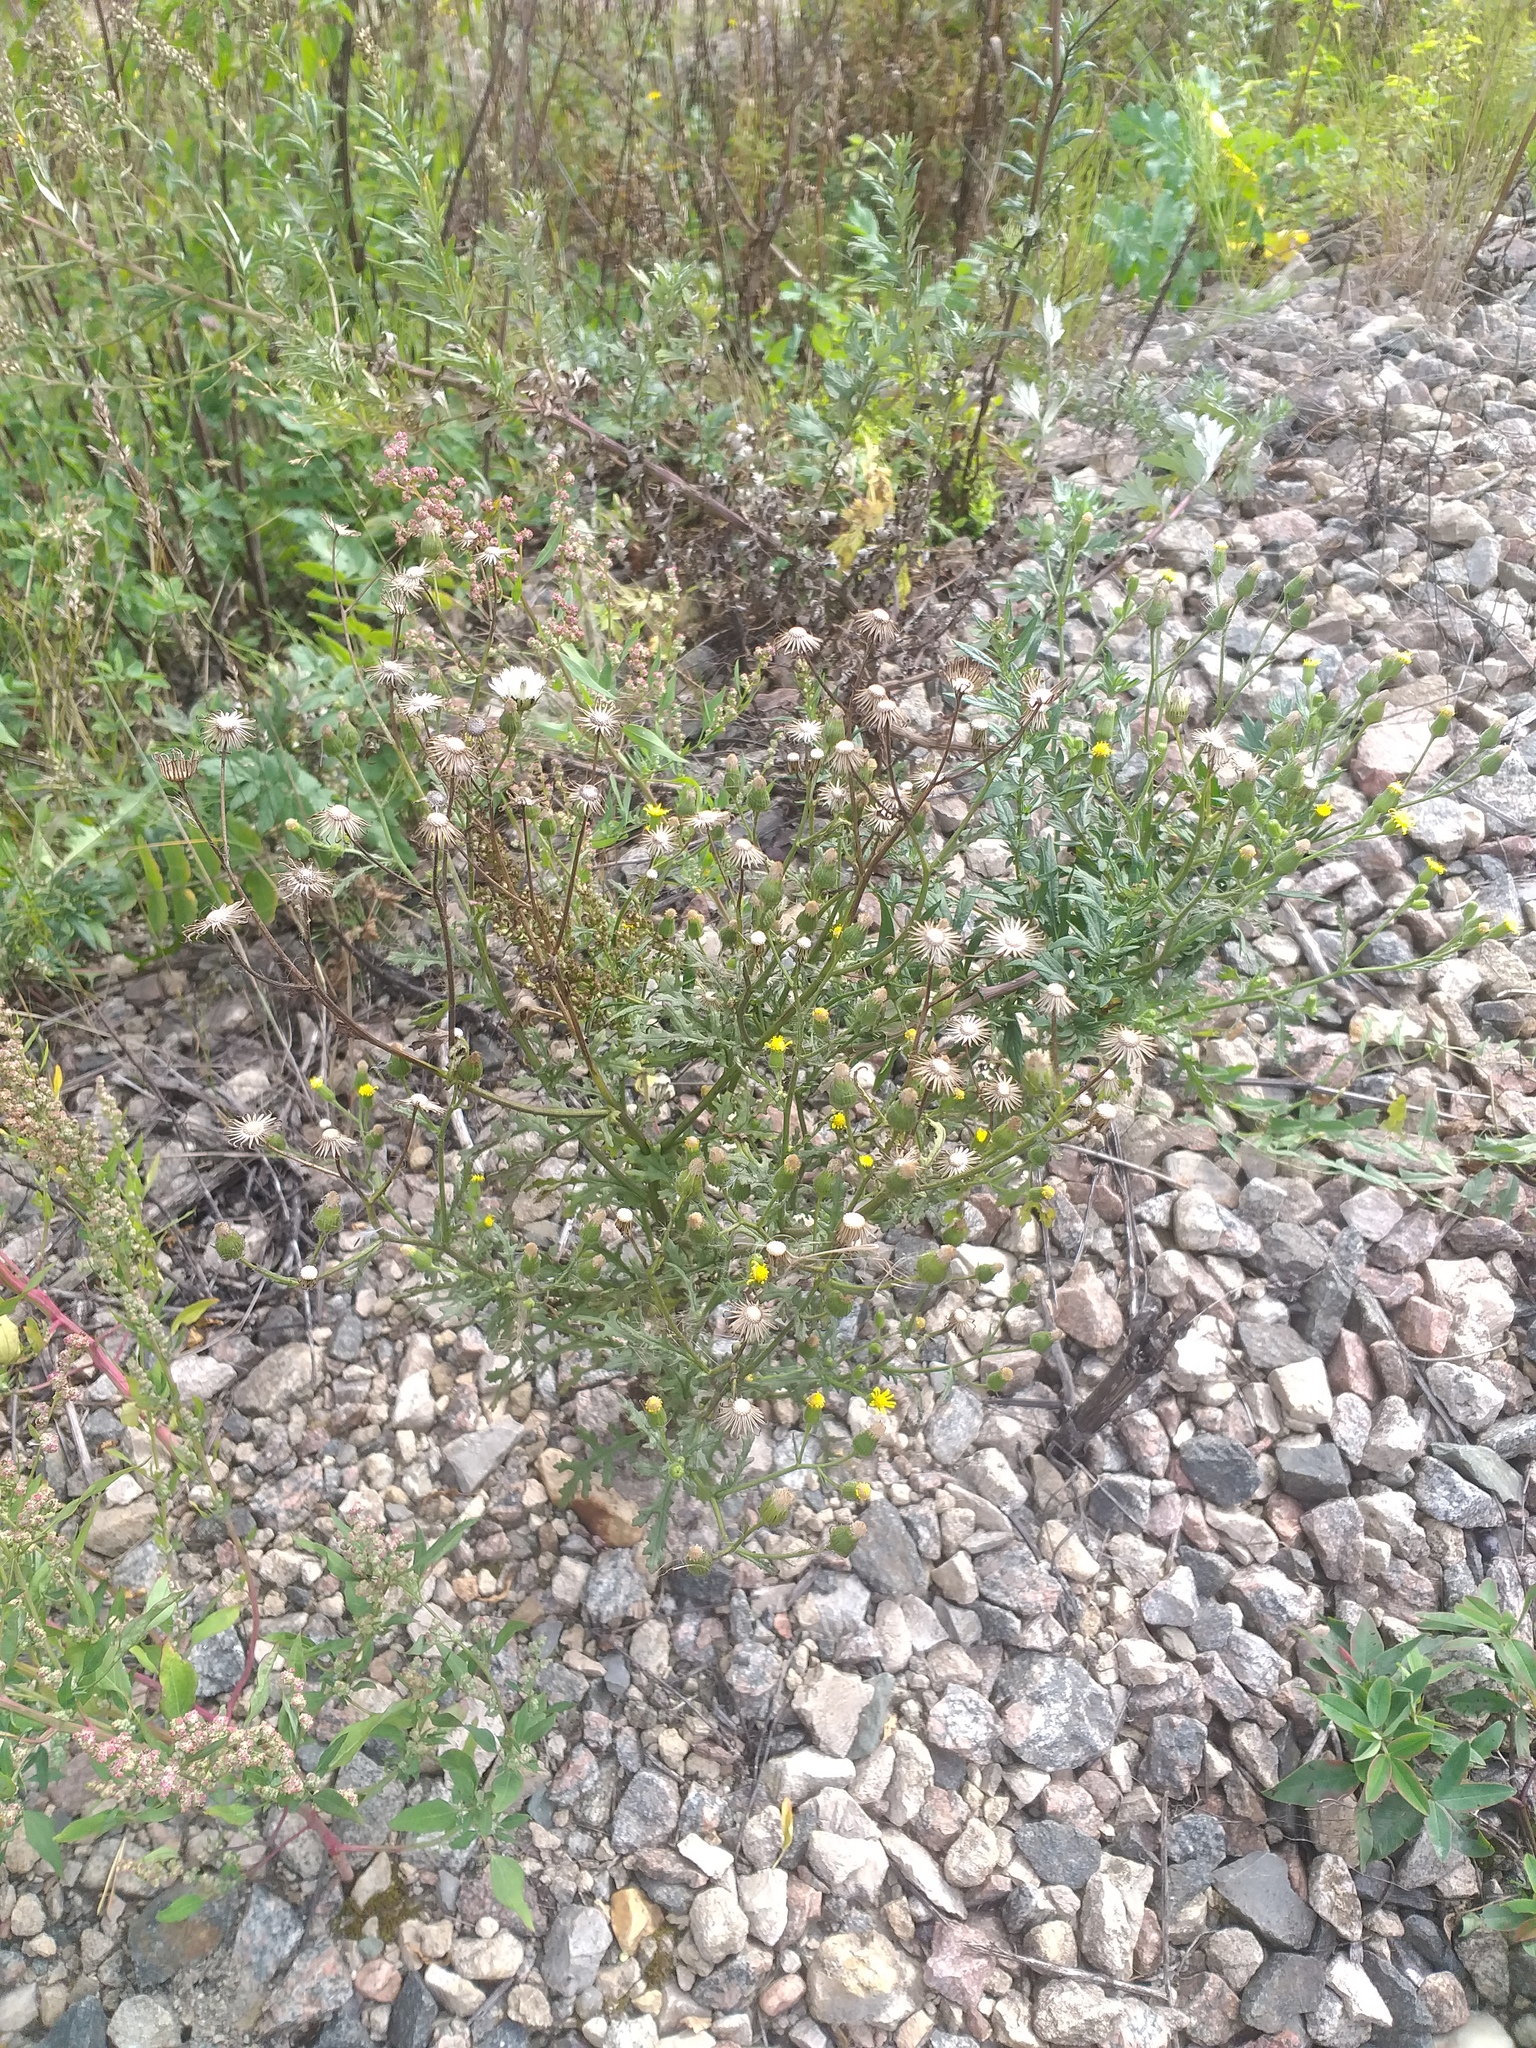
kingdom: Plantae
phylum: Tracheophyta
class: Magnoliopsida
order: Asterales
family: Asteraceae
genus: Senecio
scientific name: Senecio viscosus
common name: Sticky groundsel
